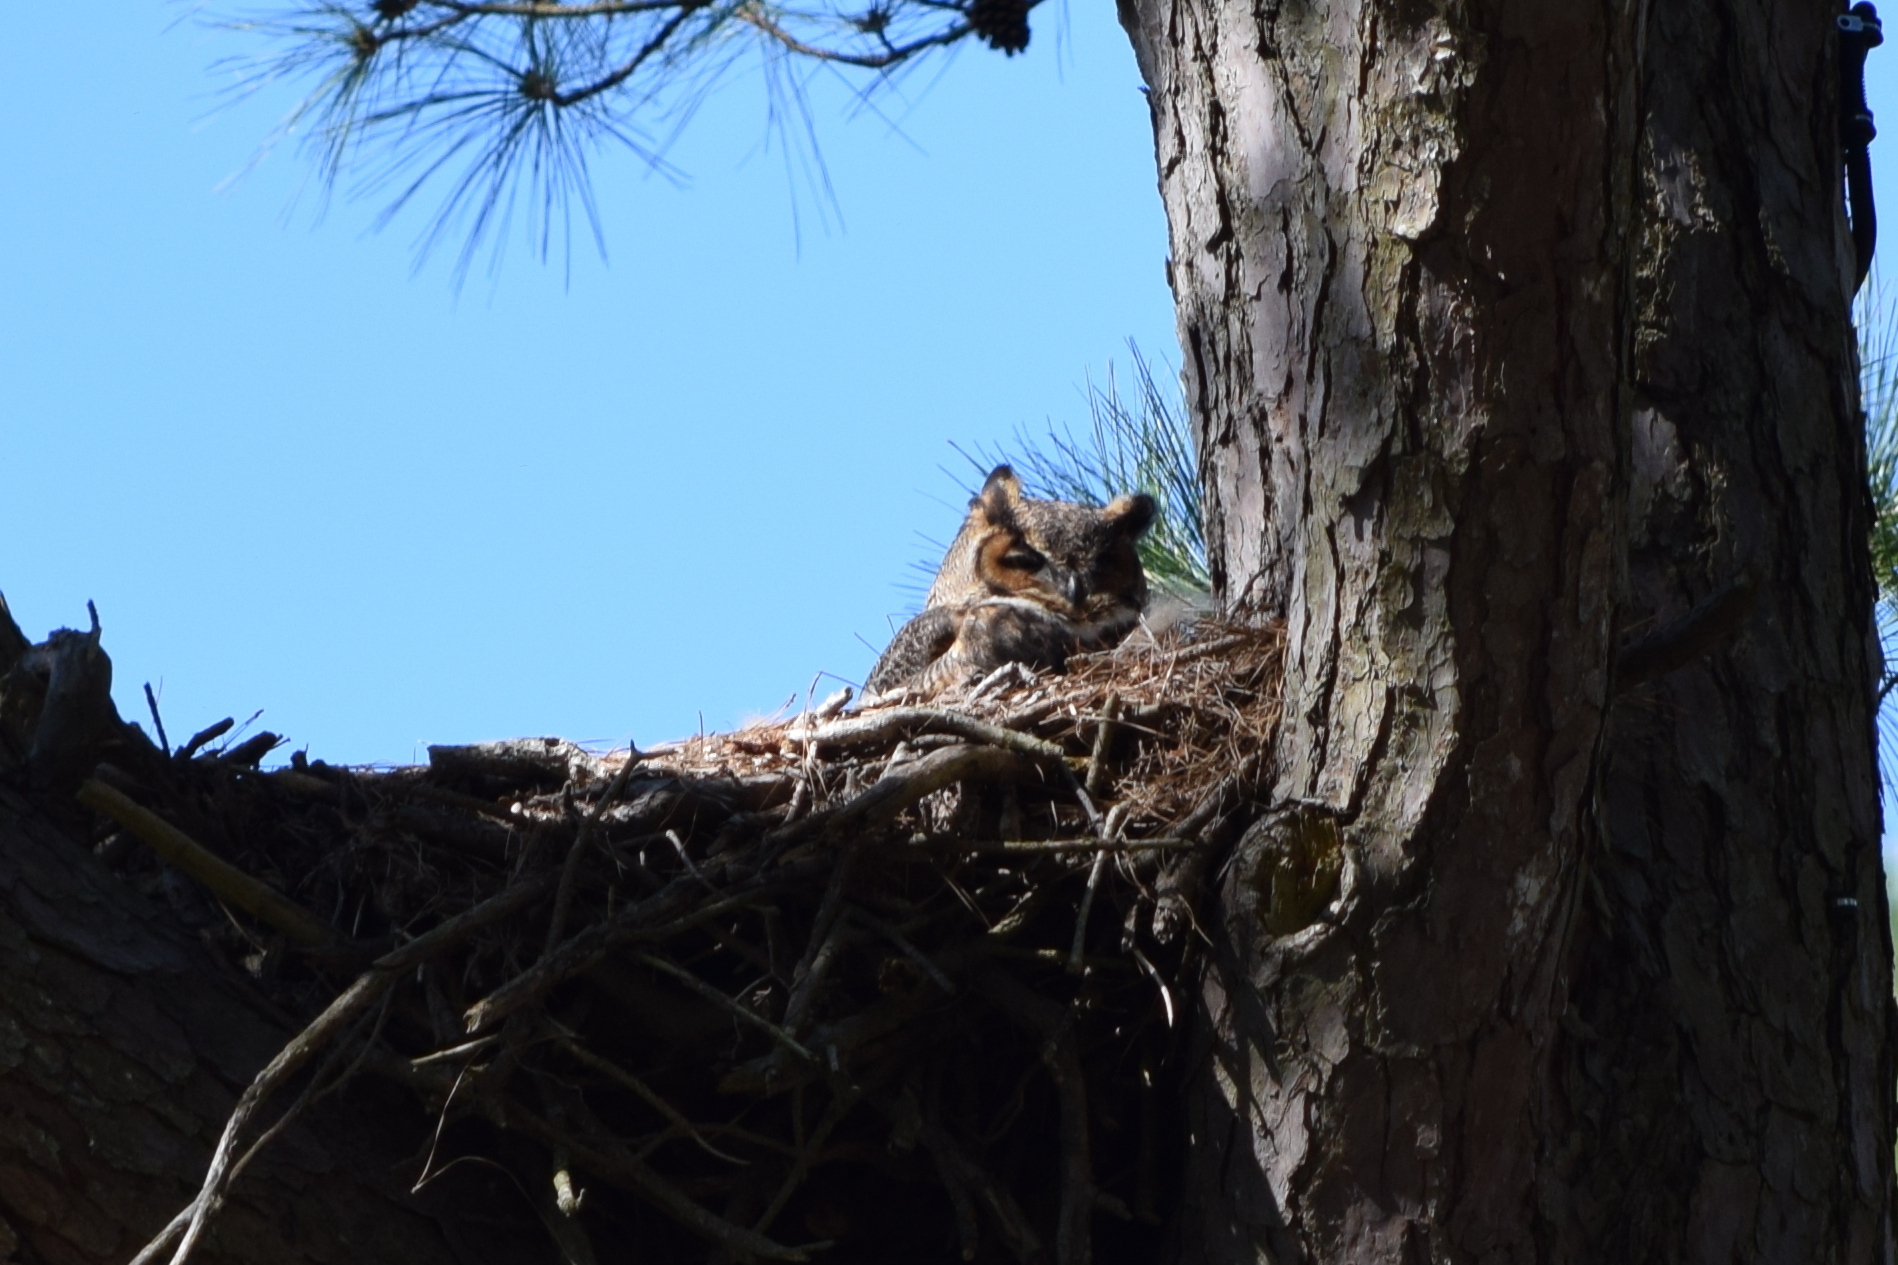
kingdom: Animalia
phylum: Chordata
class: Aves
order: Strigiformes
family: Strigidae
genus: Bubo
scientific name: Bubo virginianus
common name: Great horned owl
